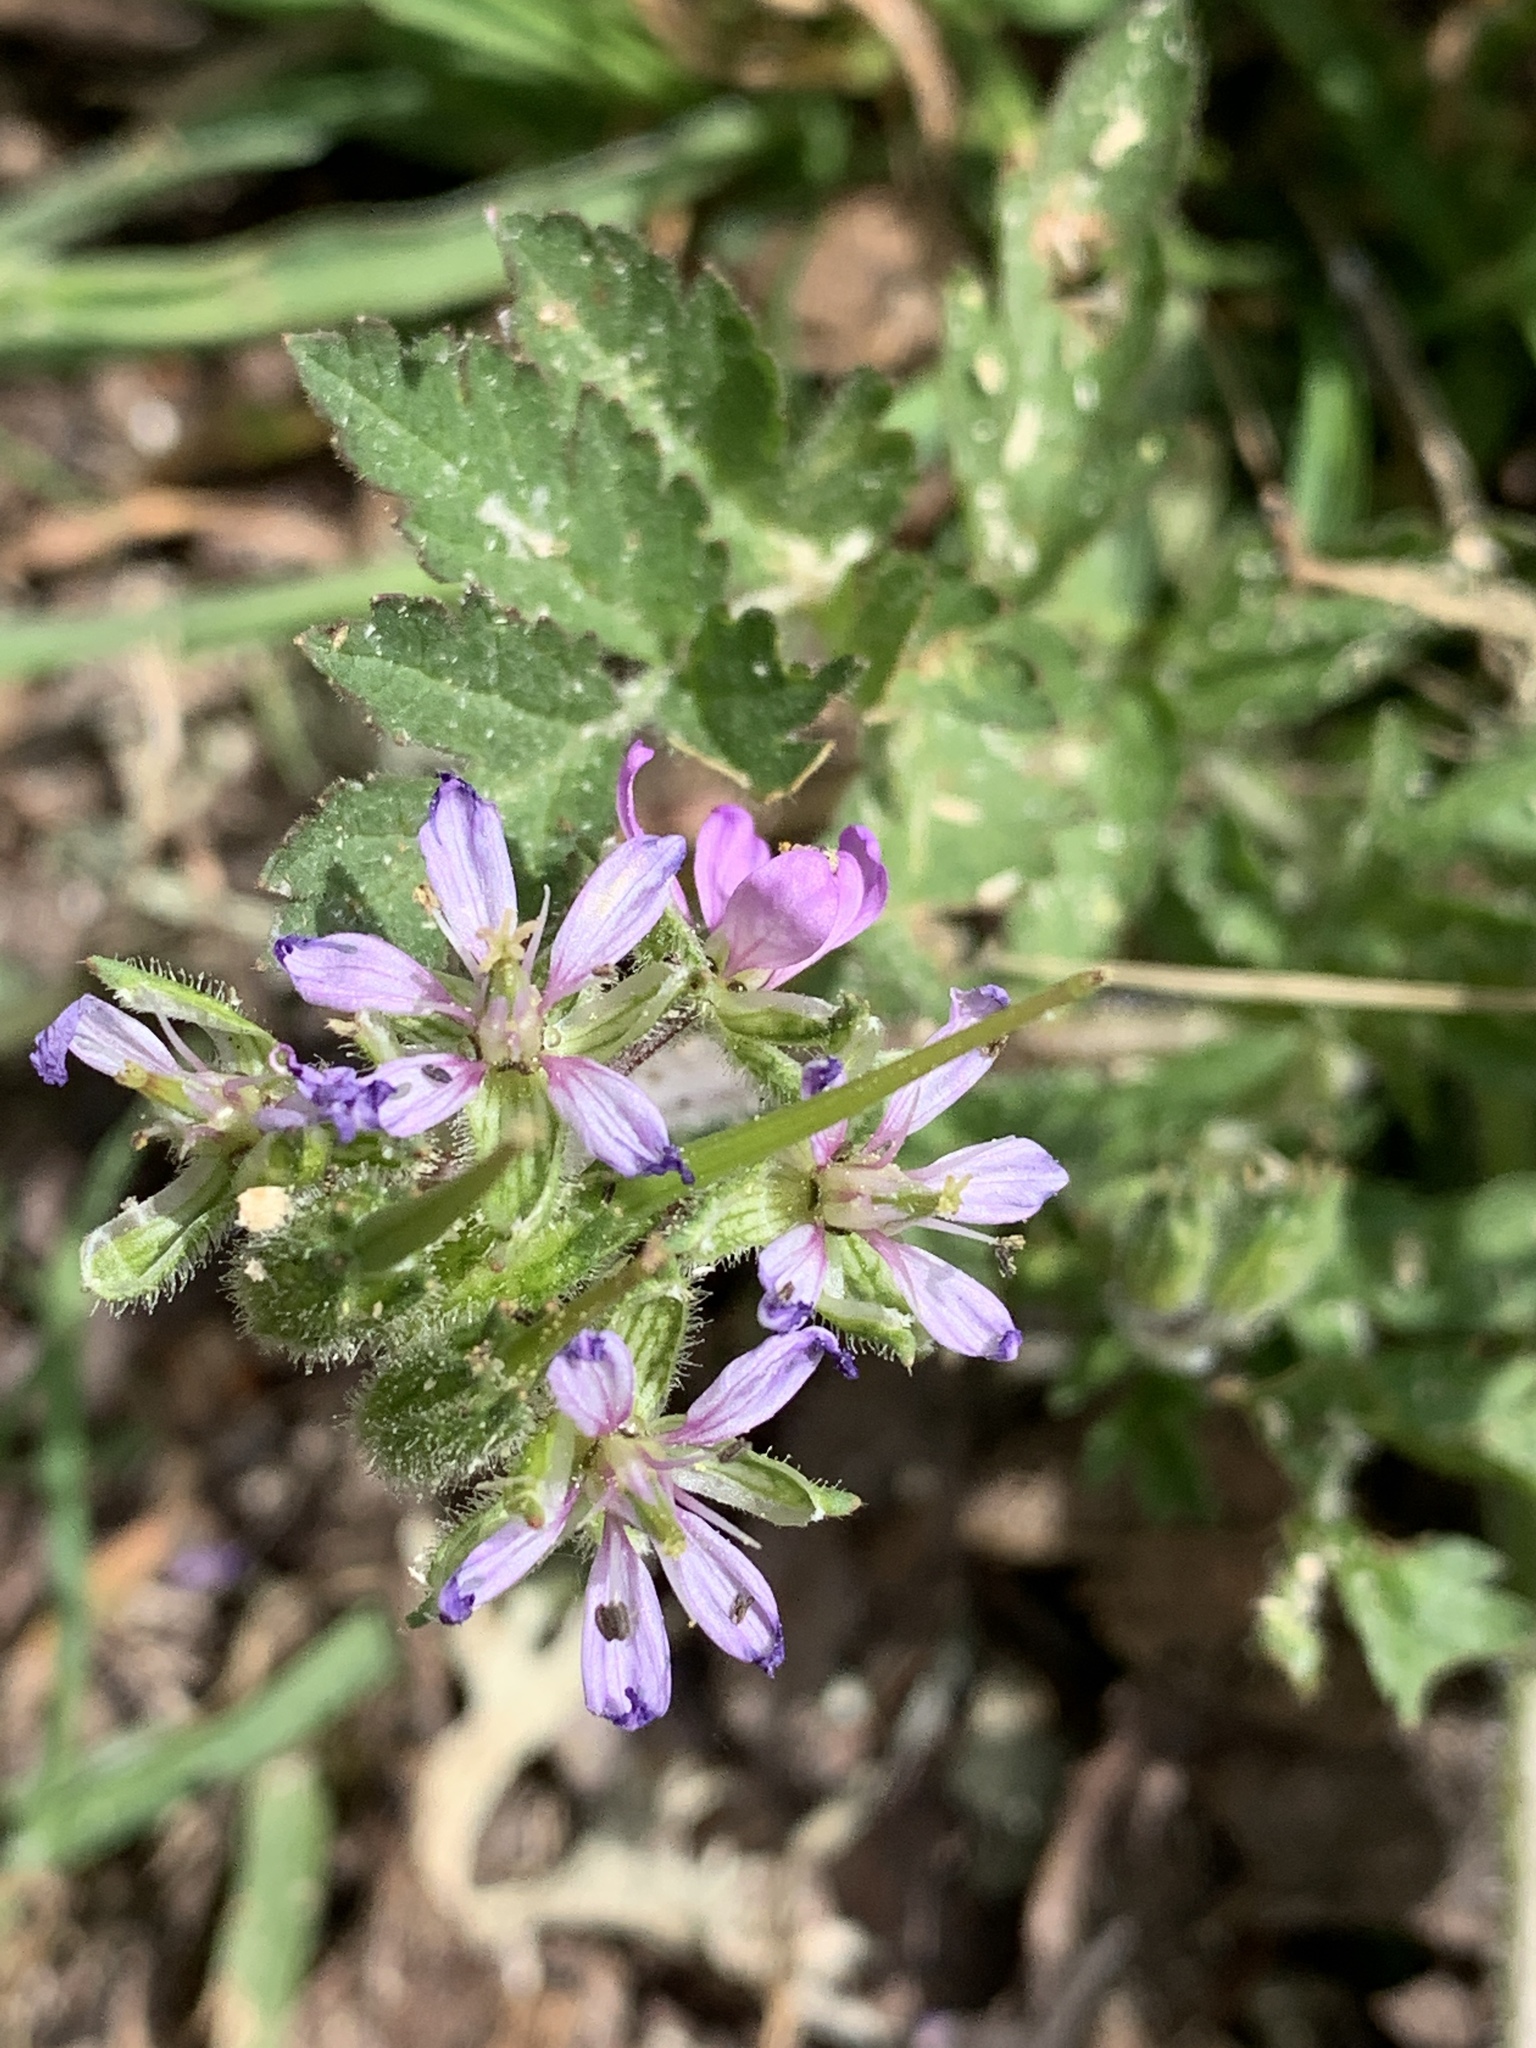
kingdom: Plantae
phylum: Tracheophyta
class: Magnoliopsida
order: Geraniales
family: Geraniaceae
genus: Erodium
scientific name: Erodium moschatum
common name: Musk stork's-bill
